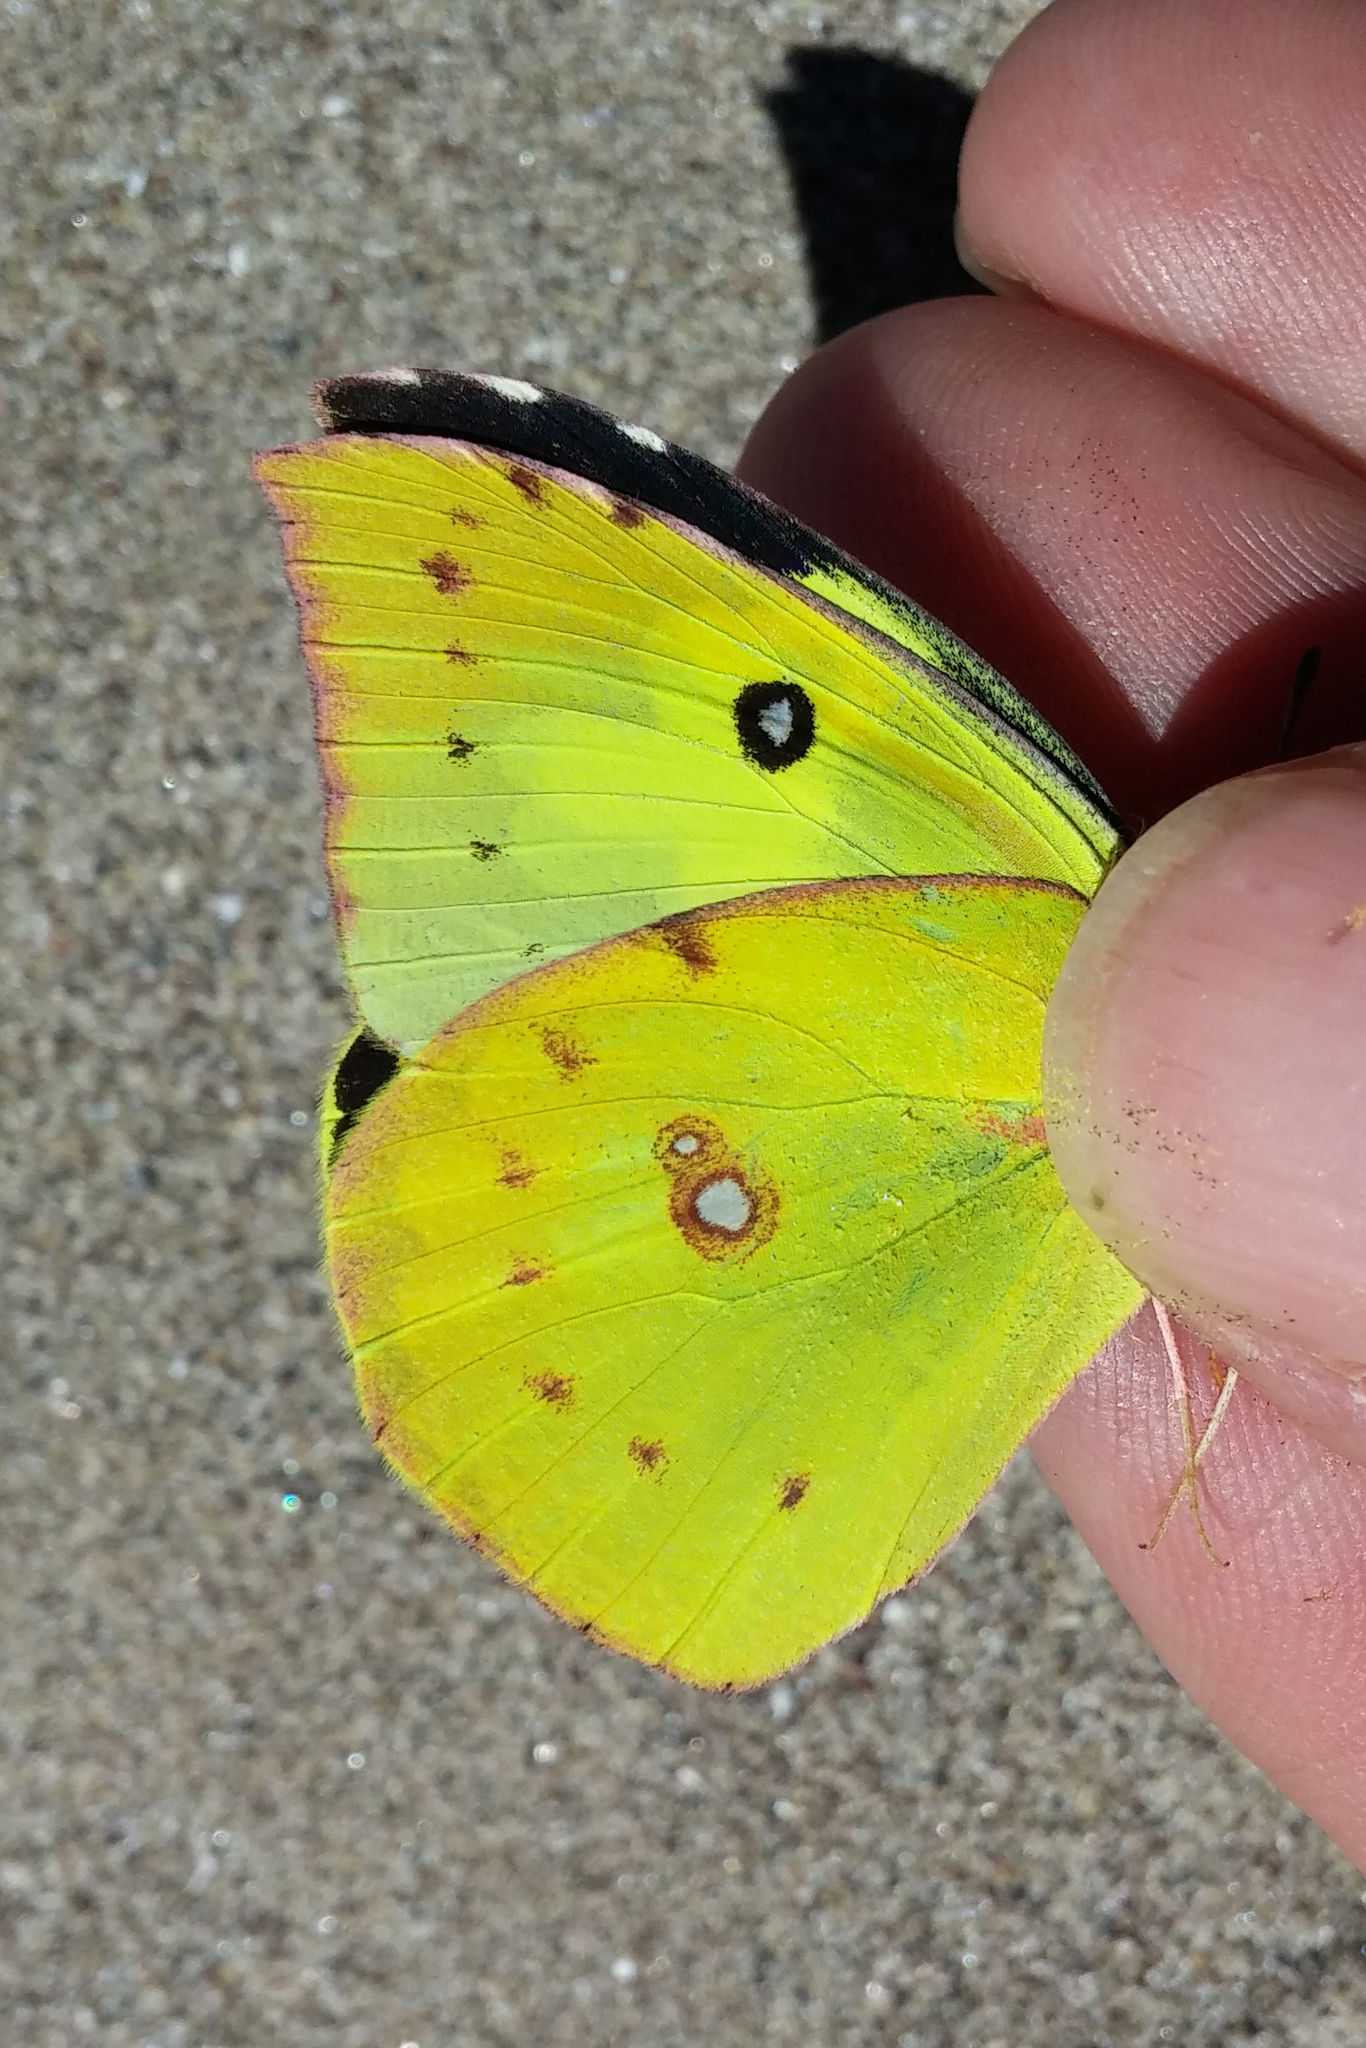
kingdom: Animalia
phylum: Arthropoda
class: Insecta
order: Lepidoptera
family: Pieridae
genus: Zerene
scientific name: Zerene cesonia
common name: Southern dogface
